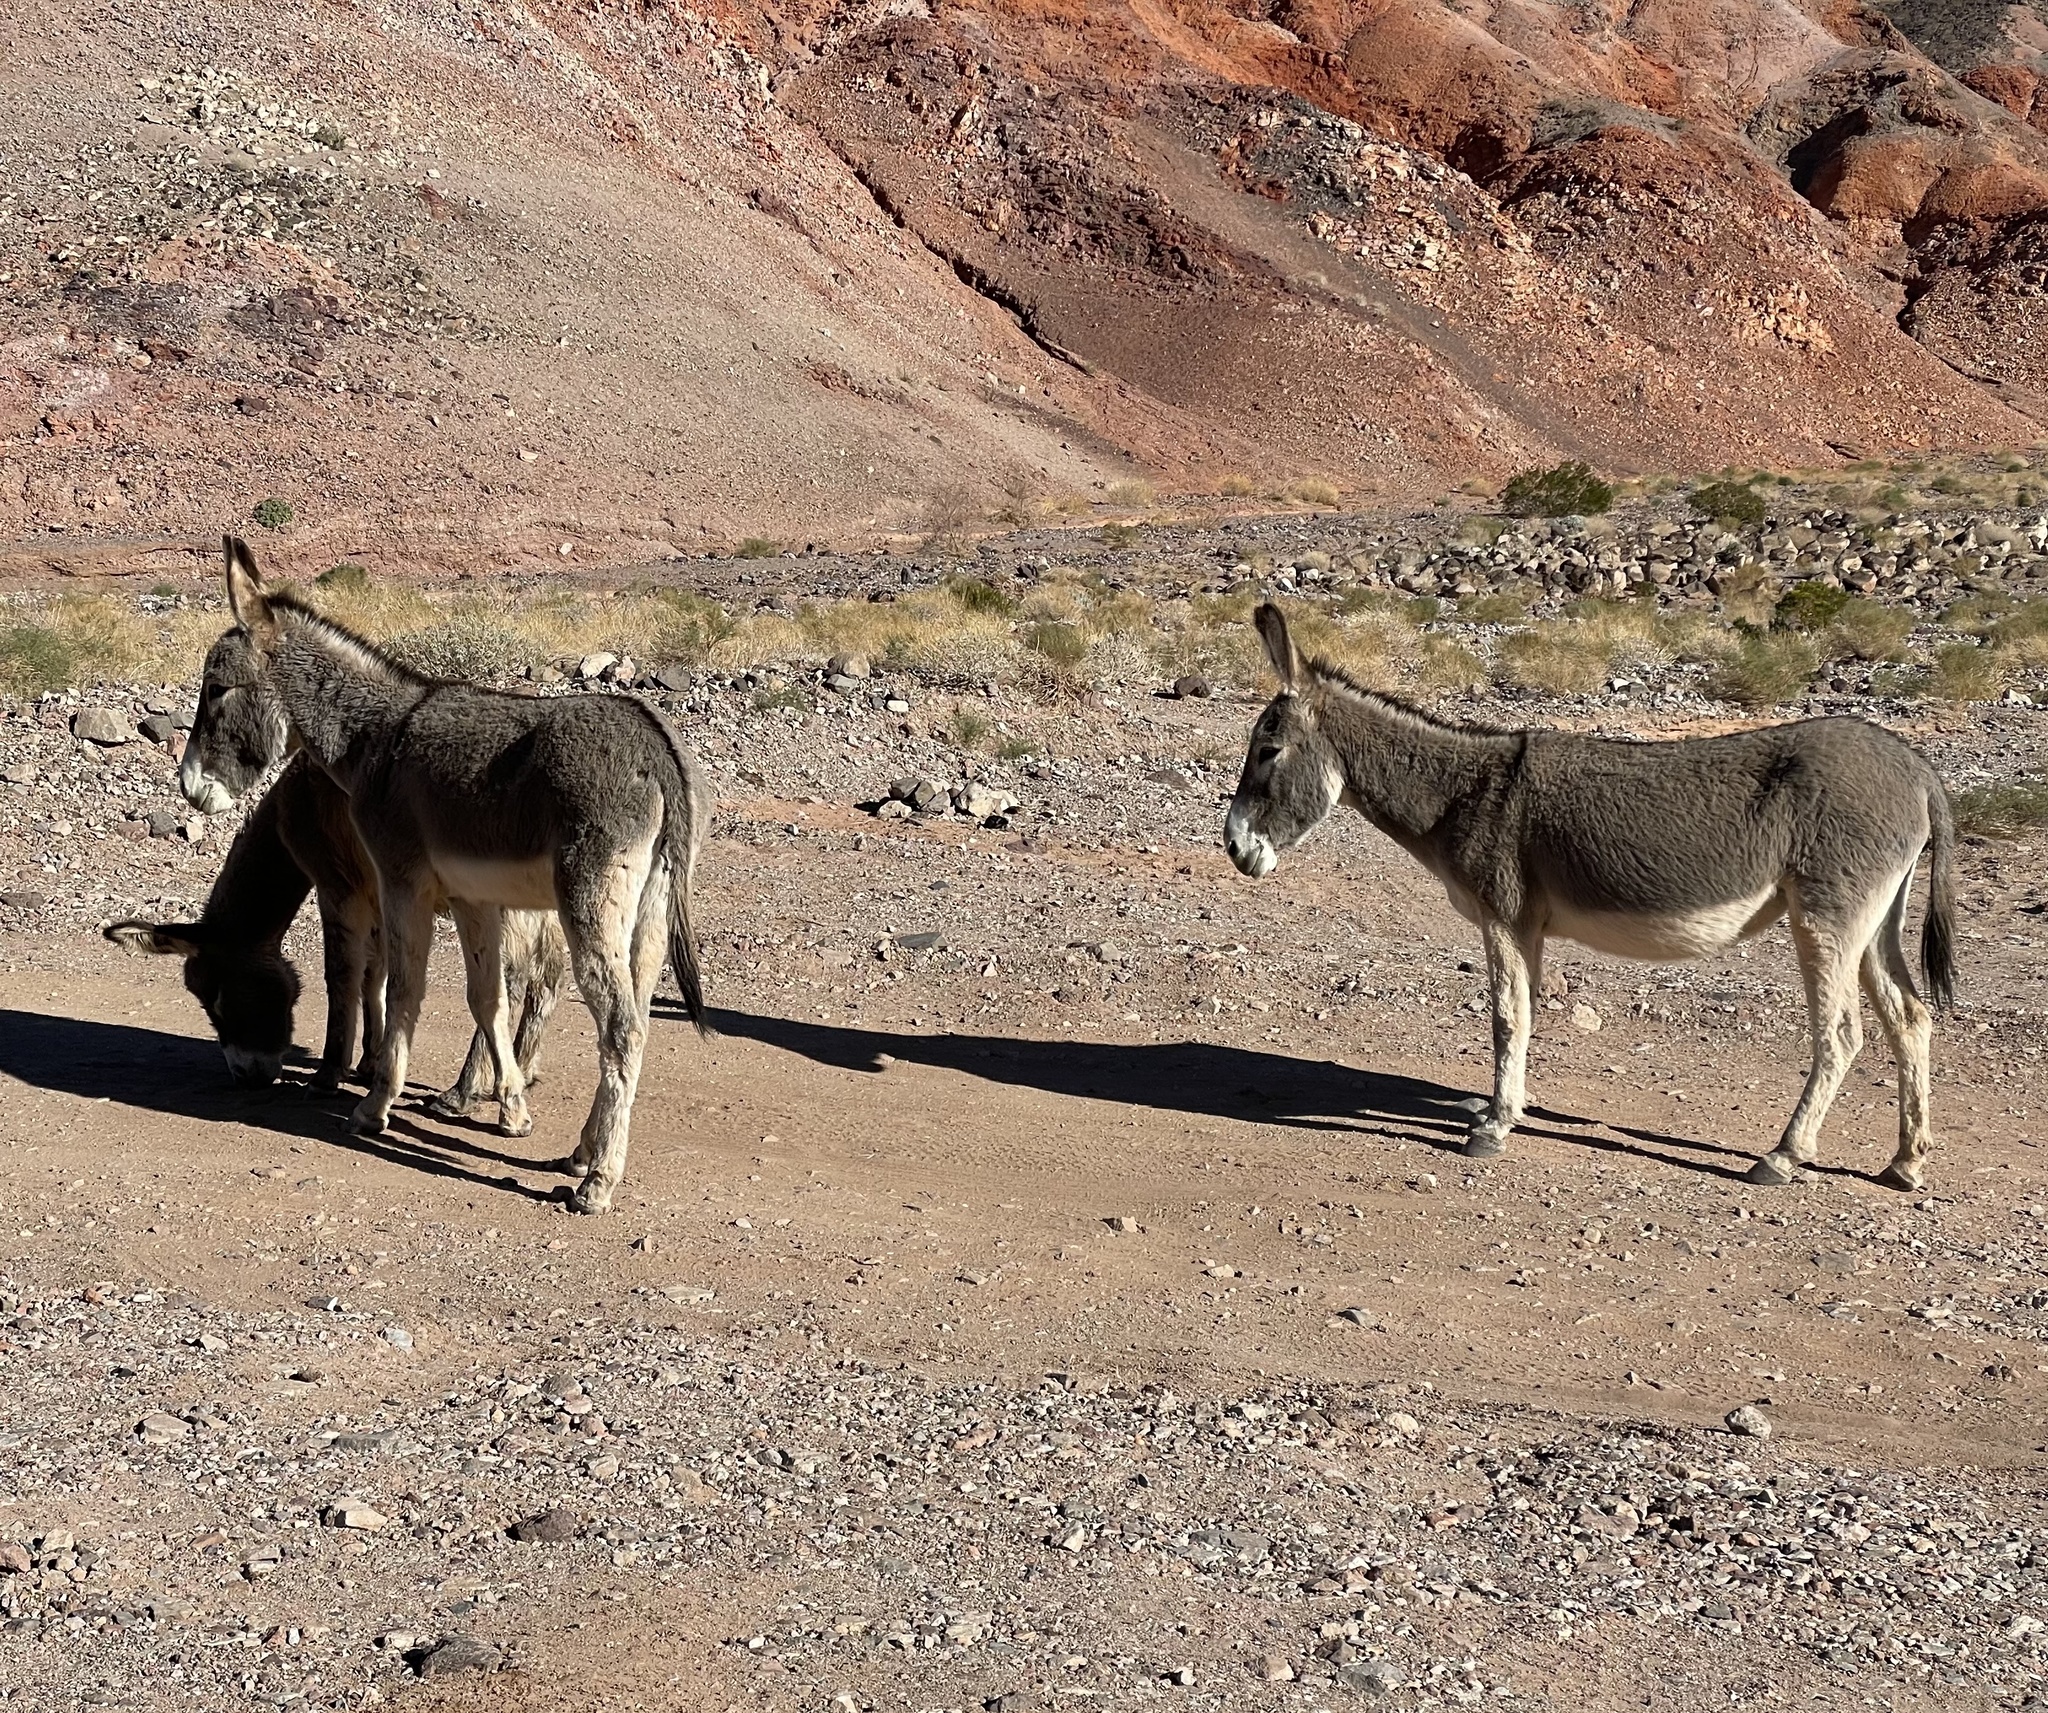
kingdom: Animalia
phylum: Chordata
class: Mammalia
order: Perissodactyla
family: Equidae
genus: Equus
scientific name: Equus asinus
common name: Ass
